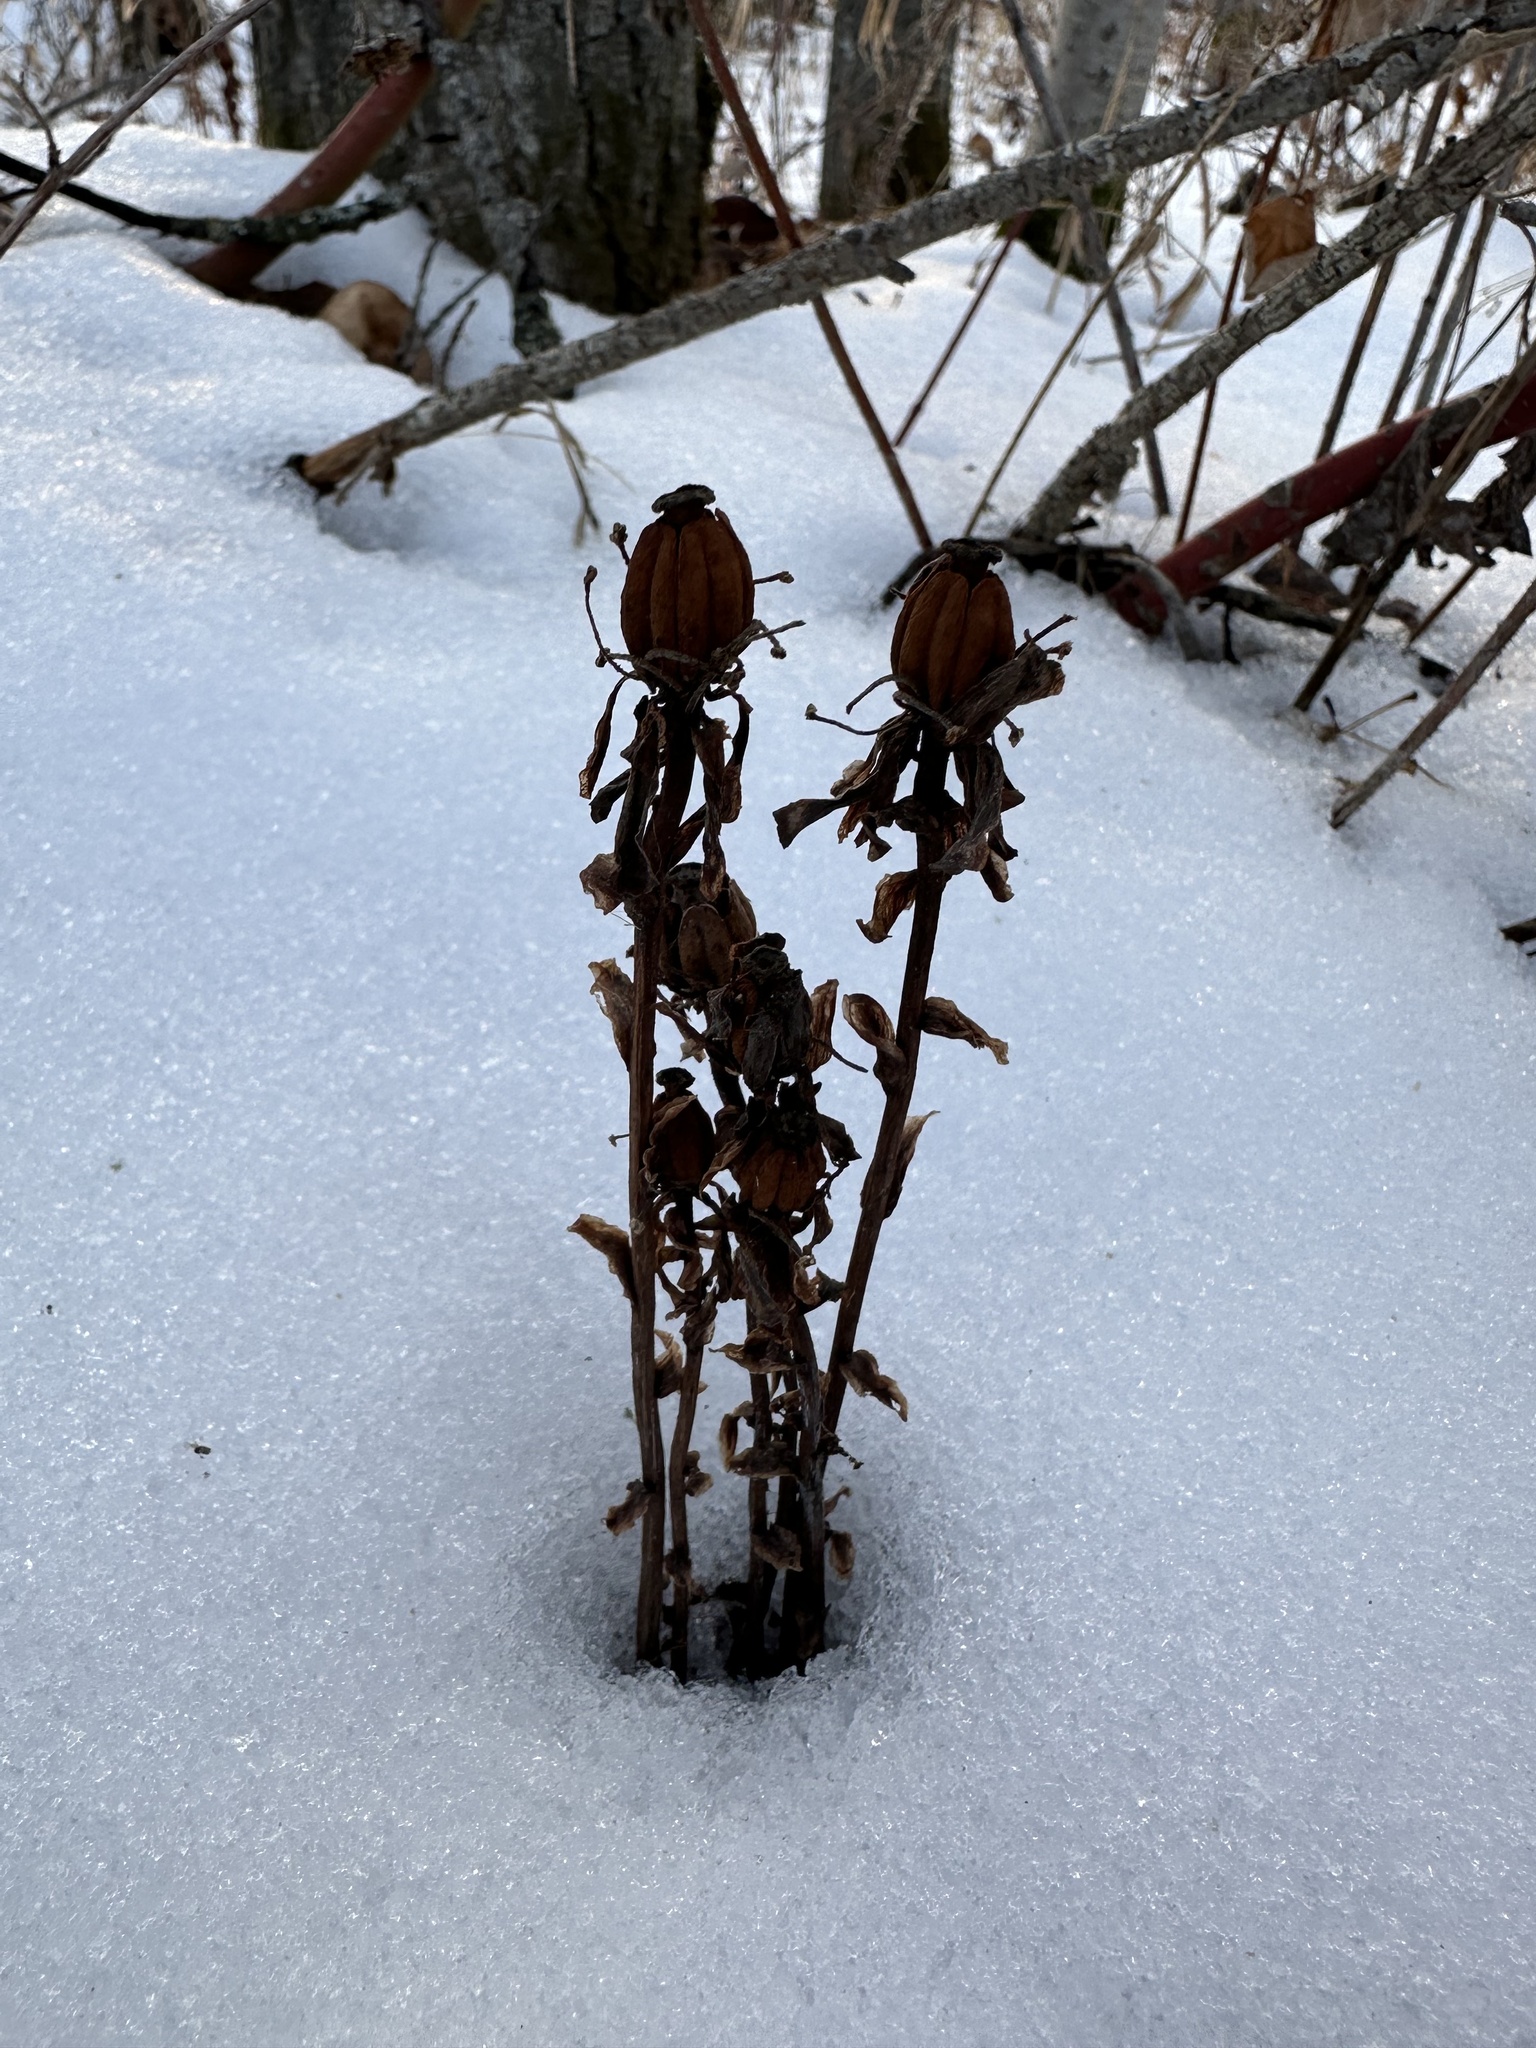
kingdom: Plantae
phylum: Tracheophyta
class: Magnoliopsida
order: Ericales
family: Ericaceae
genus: Monotropa
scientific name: Monotropa uniflora
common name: Convulsion root
